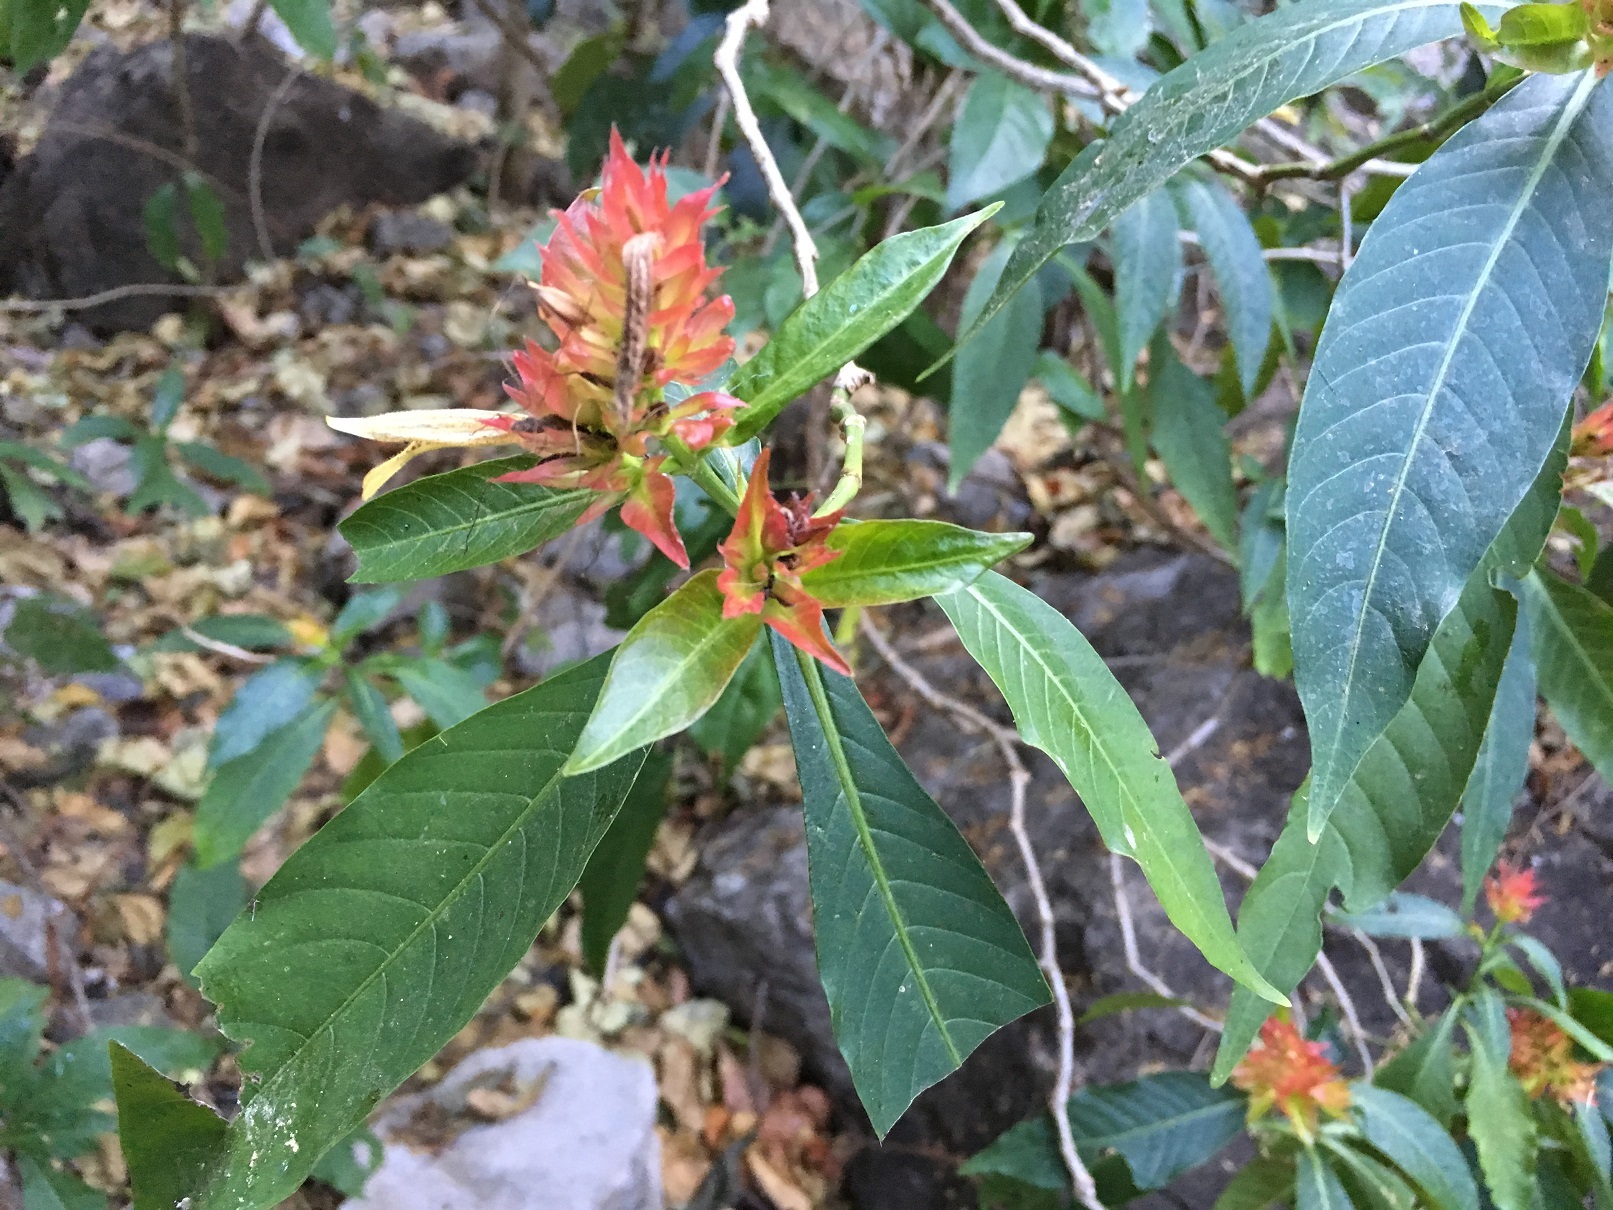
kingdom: Plantae
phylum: Tracheophyta
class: Magnoliopsida
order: Lamiales
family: Acanthaceae
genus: Justicia
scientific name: Justicia mirandae
